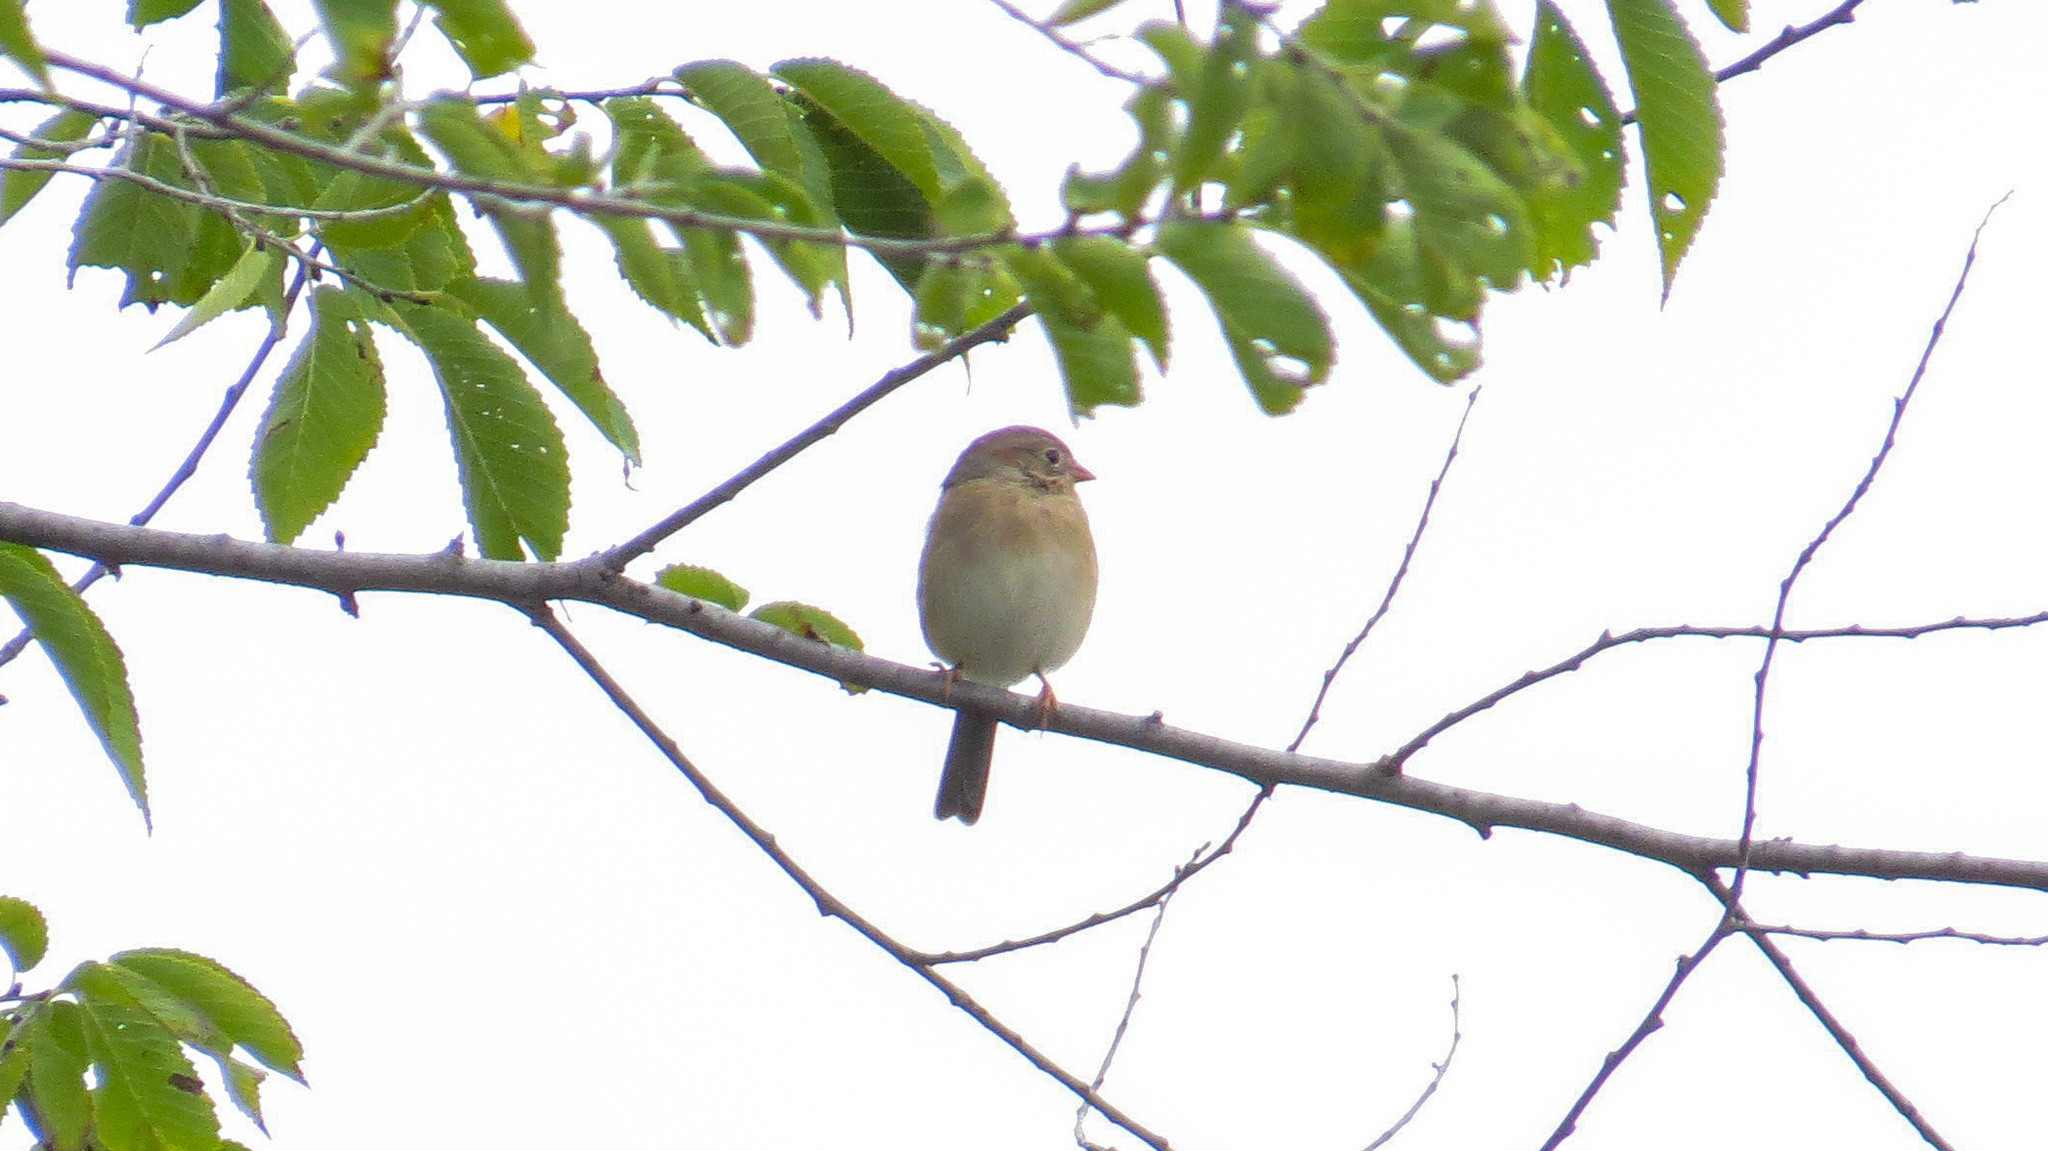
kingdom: Animalia
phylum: Chordata
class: Aves
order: Passeriformes
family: Passerellidae
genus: Spizella
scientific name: Spizella pusilla
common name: Field sparrow
